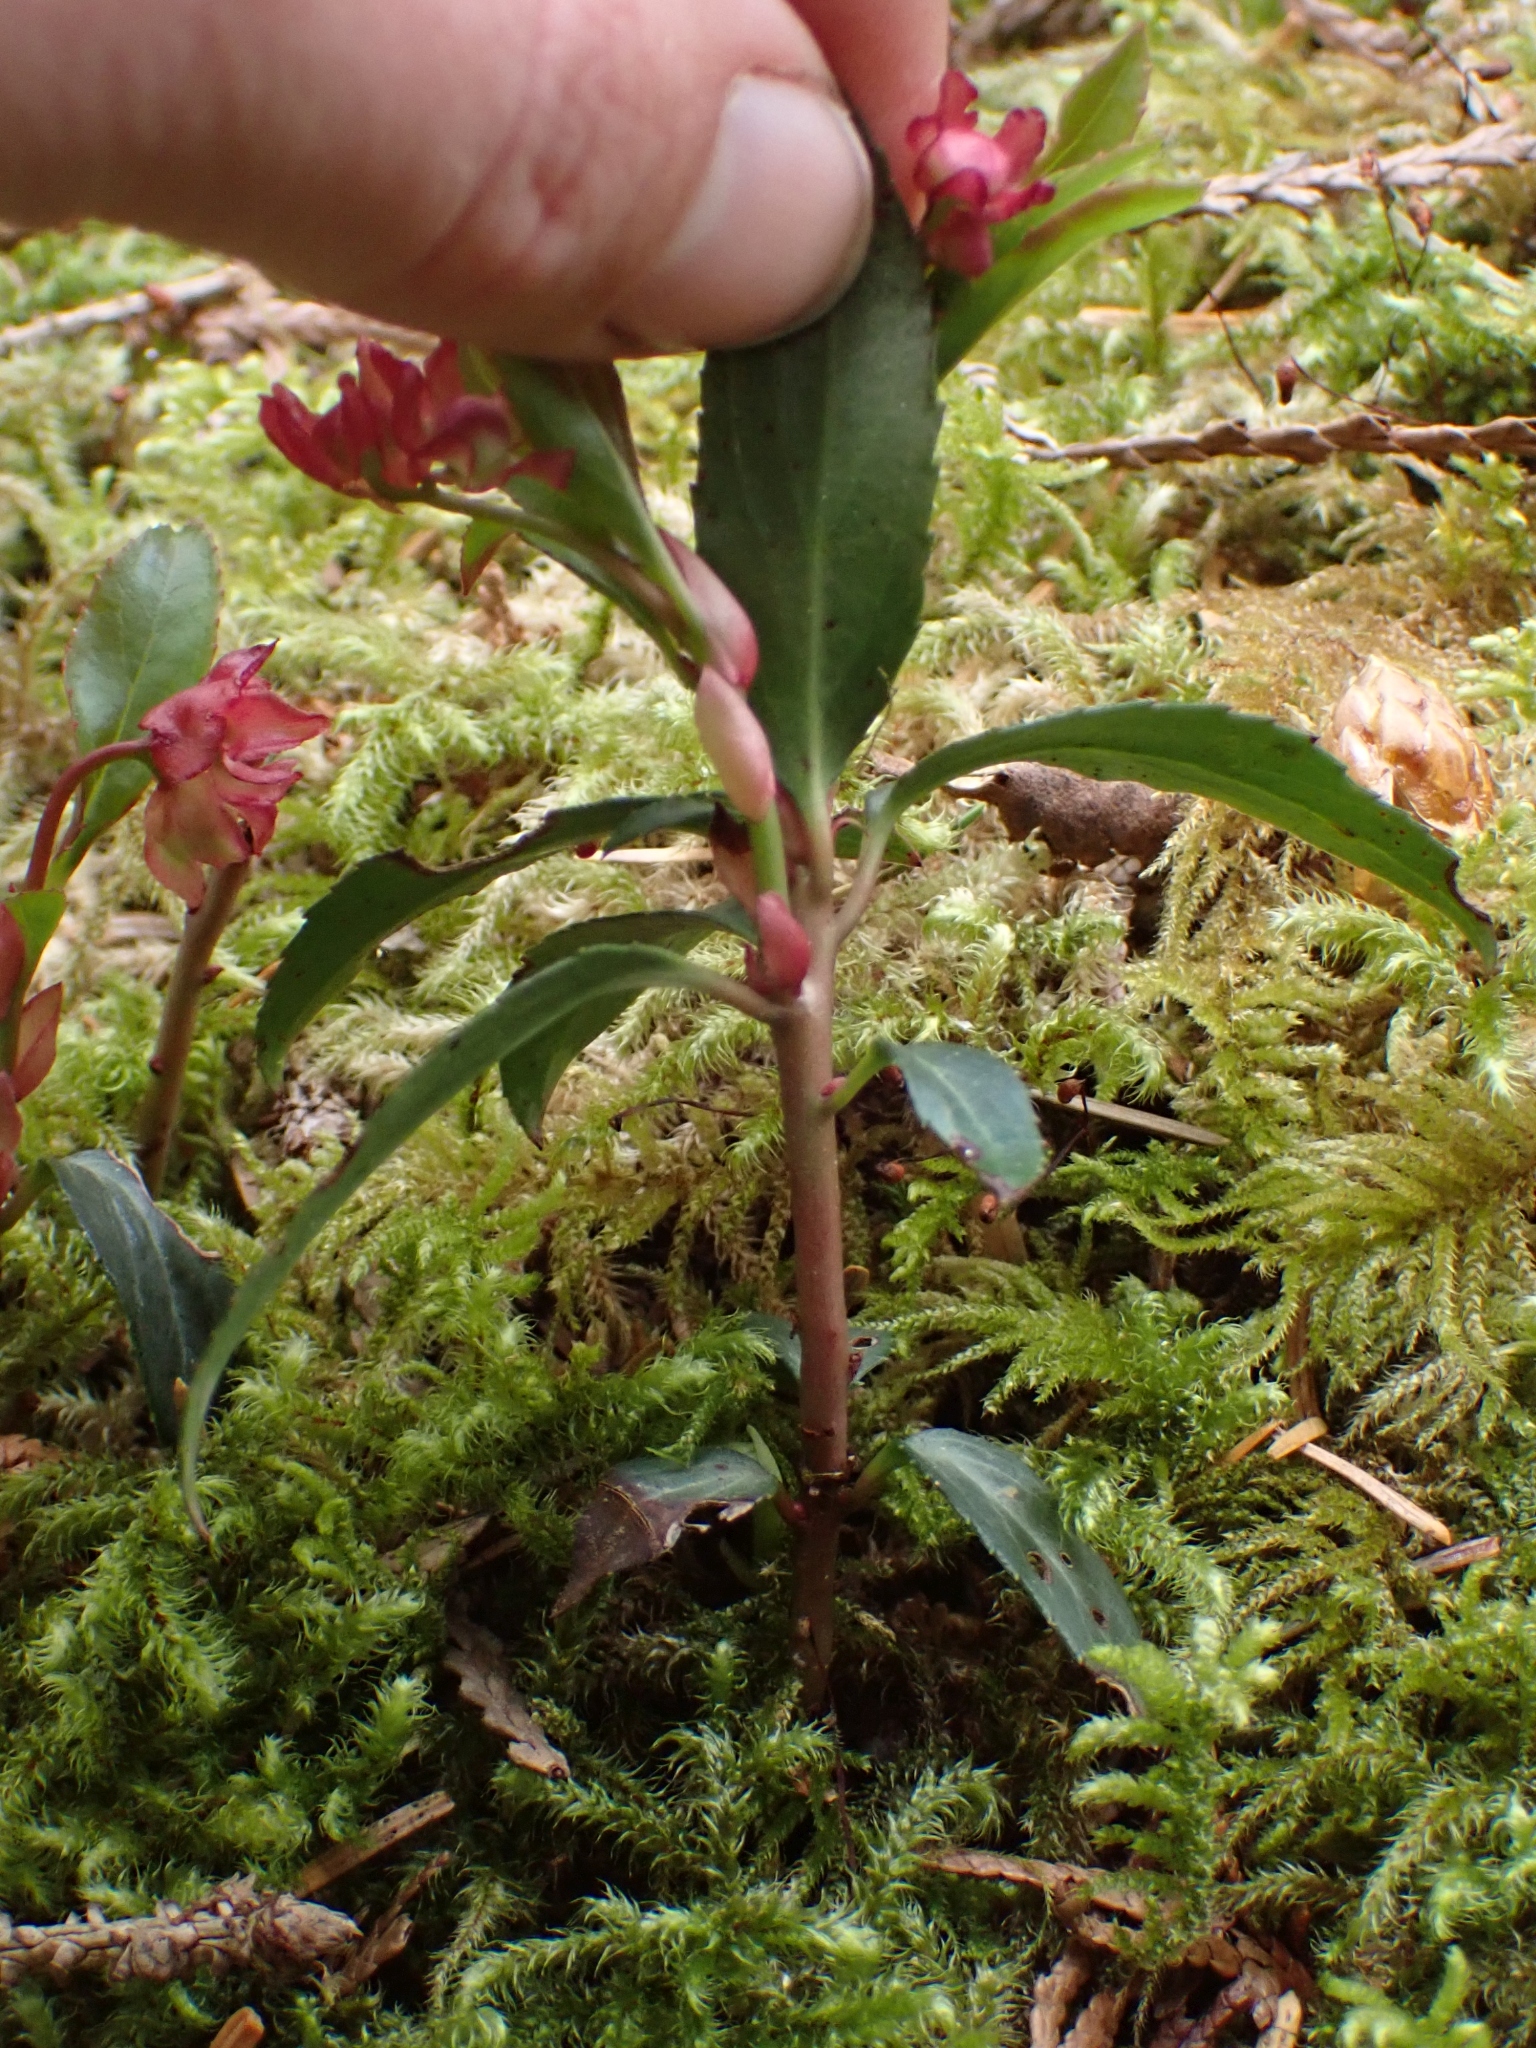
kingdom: Plantae
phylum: Tracheophyta
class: Magnoliopsida
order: Ericales
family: Ericaceae
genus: Chimaphila
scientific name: Chimaphila menziesii
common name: Menzies' pipsissewa
